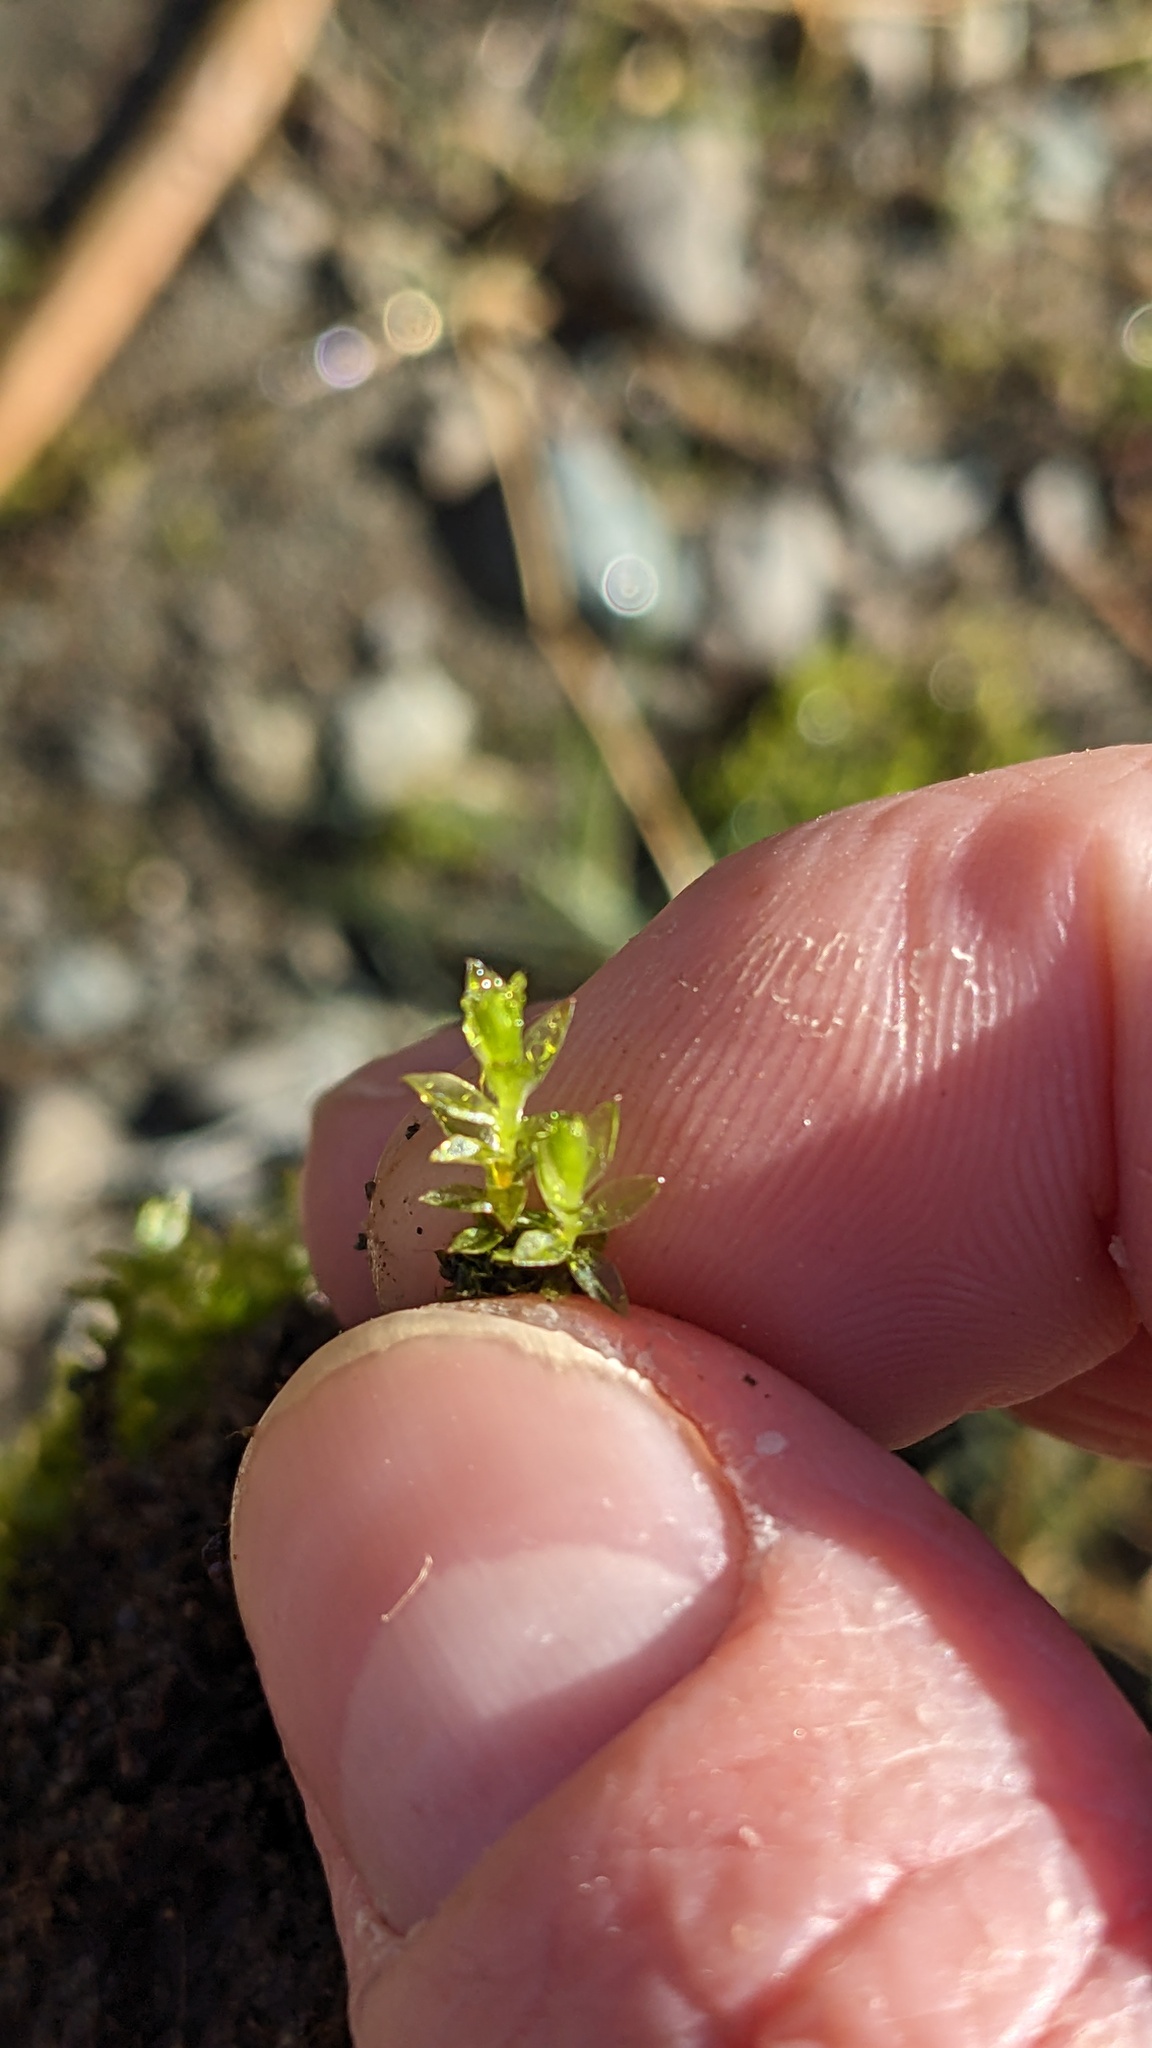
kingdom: Plantae
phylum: Bryophyta
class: Bryopsida
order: Bryales
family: Bryaceae
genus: Ptychostomum
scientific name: Ptychostomum pseudotriquetrum
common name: Long-leaved thread moss
